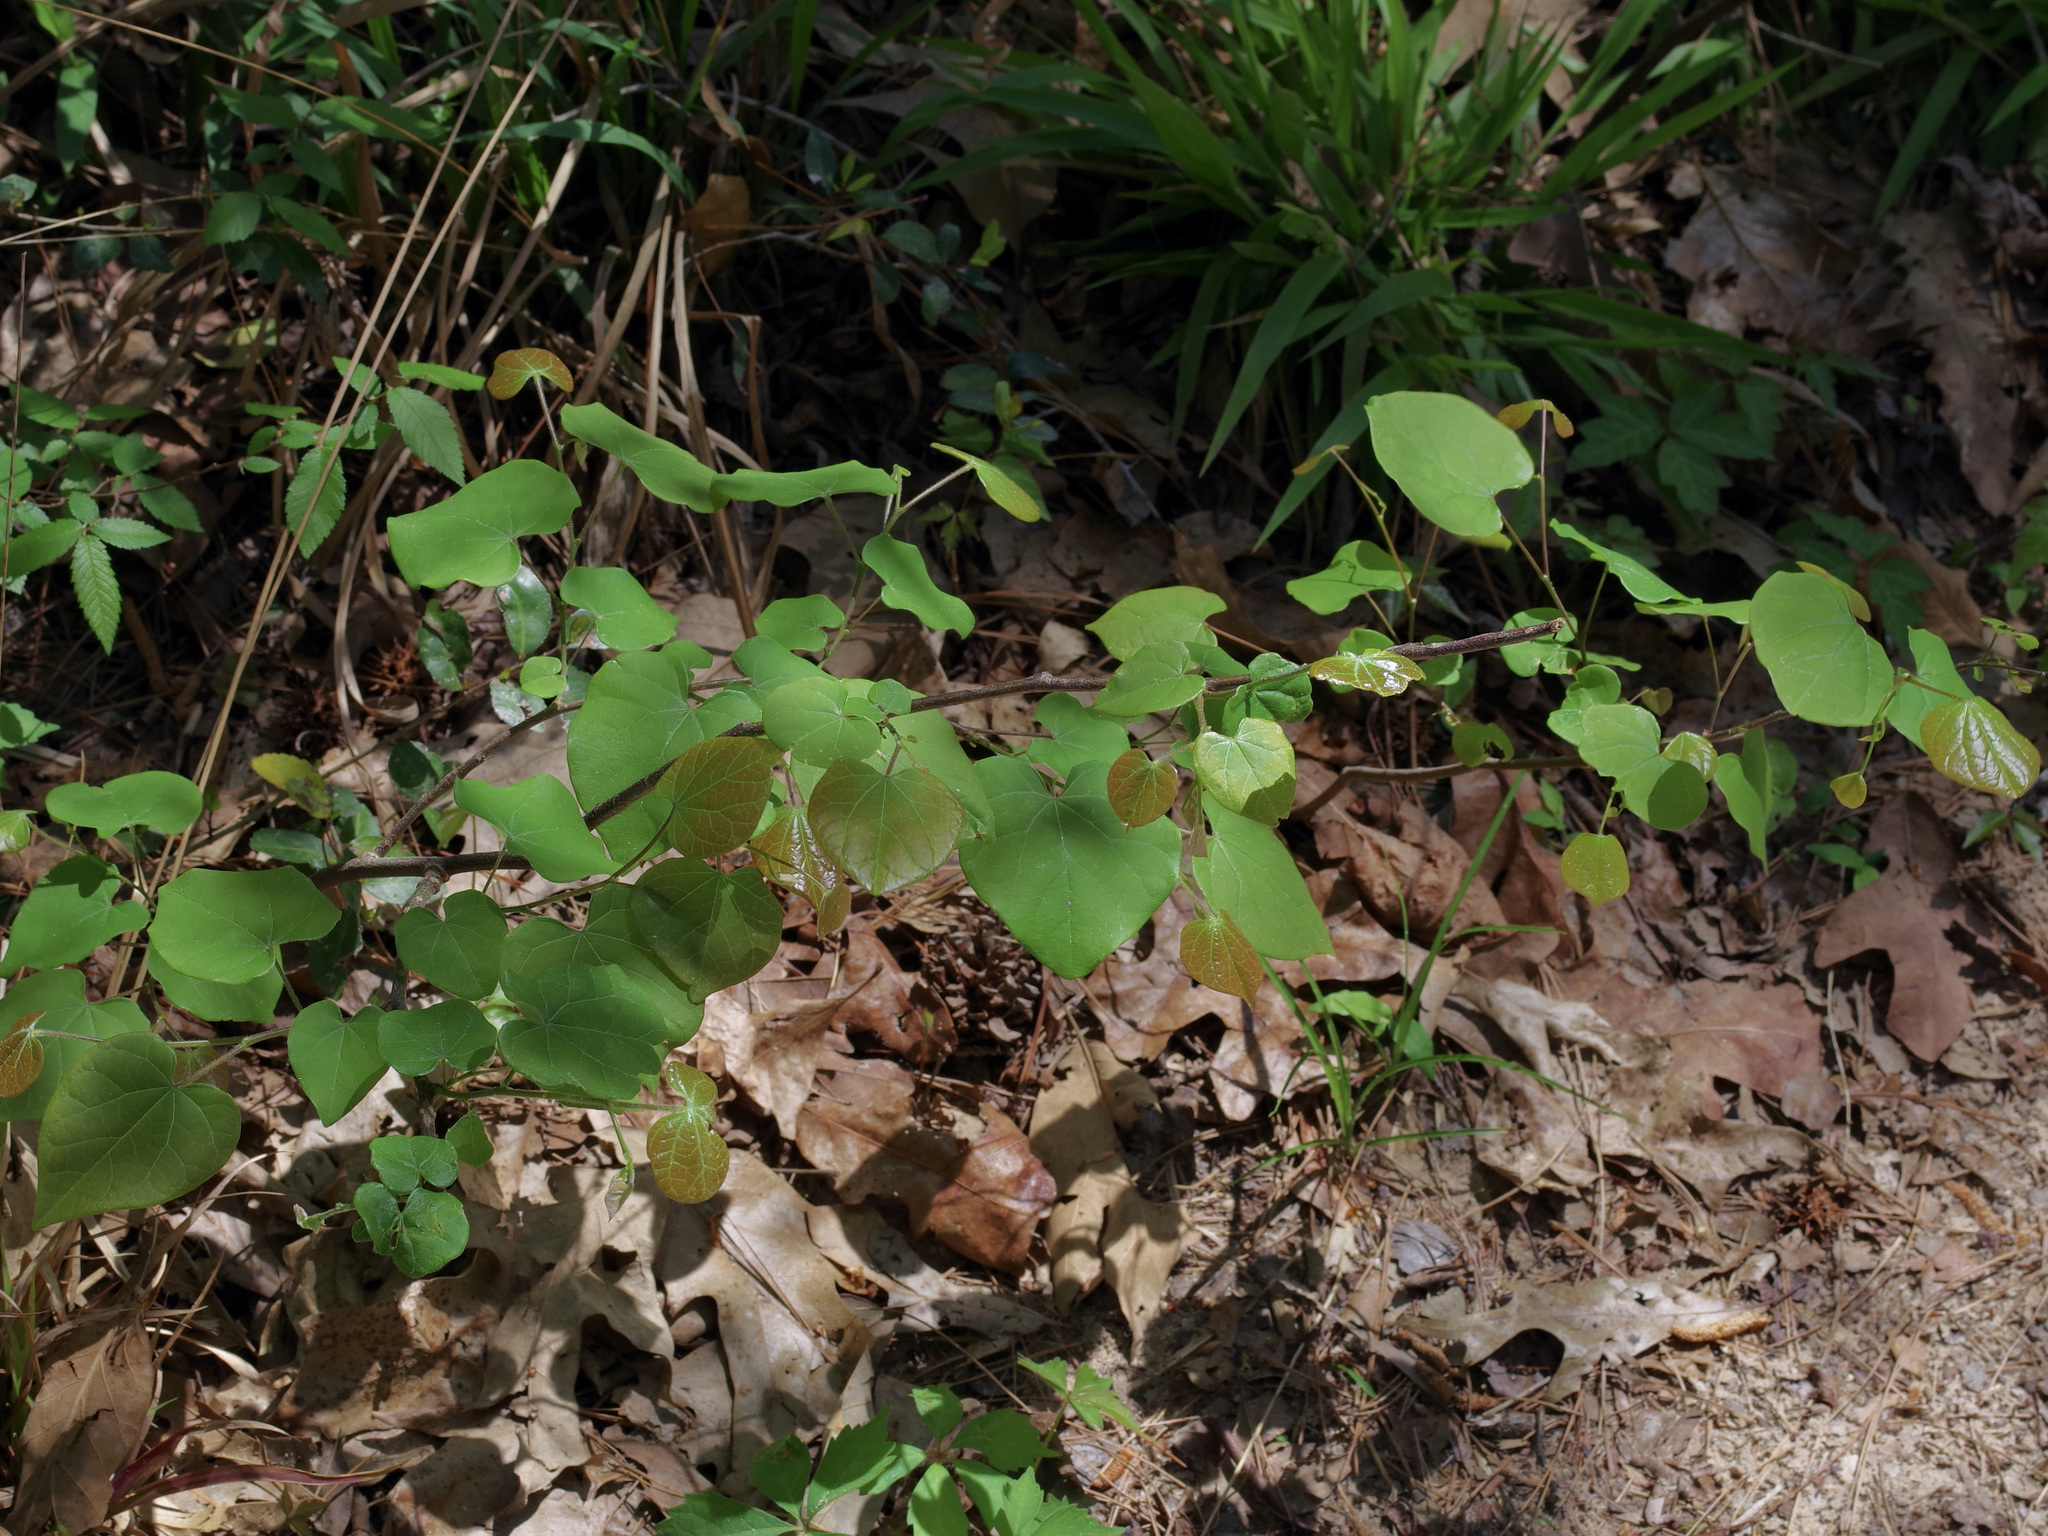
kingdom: Plantae
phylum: Tracheophyta
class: Magnoliopsida
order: Fabales
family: Fabaceae
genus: Cercis
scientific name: Cercis canadensis
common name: Eastern redbud
